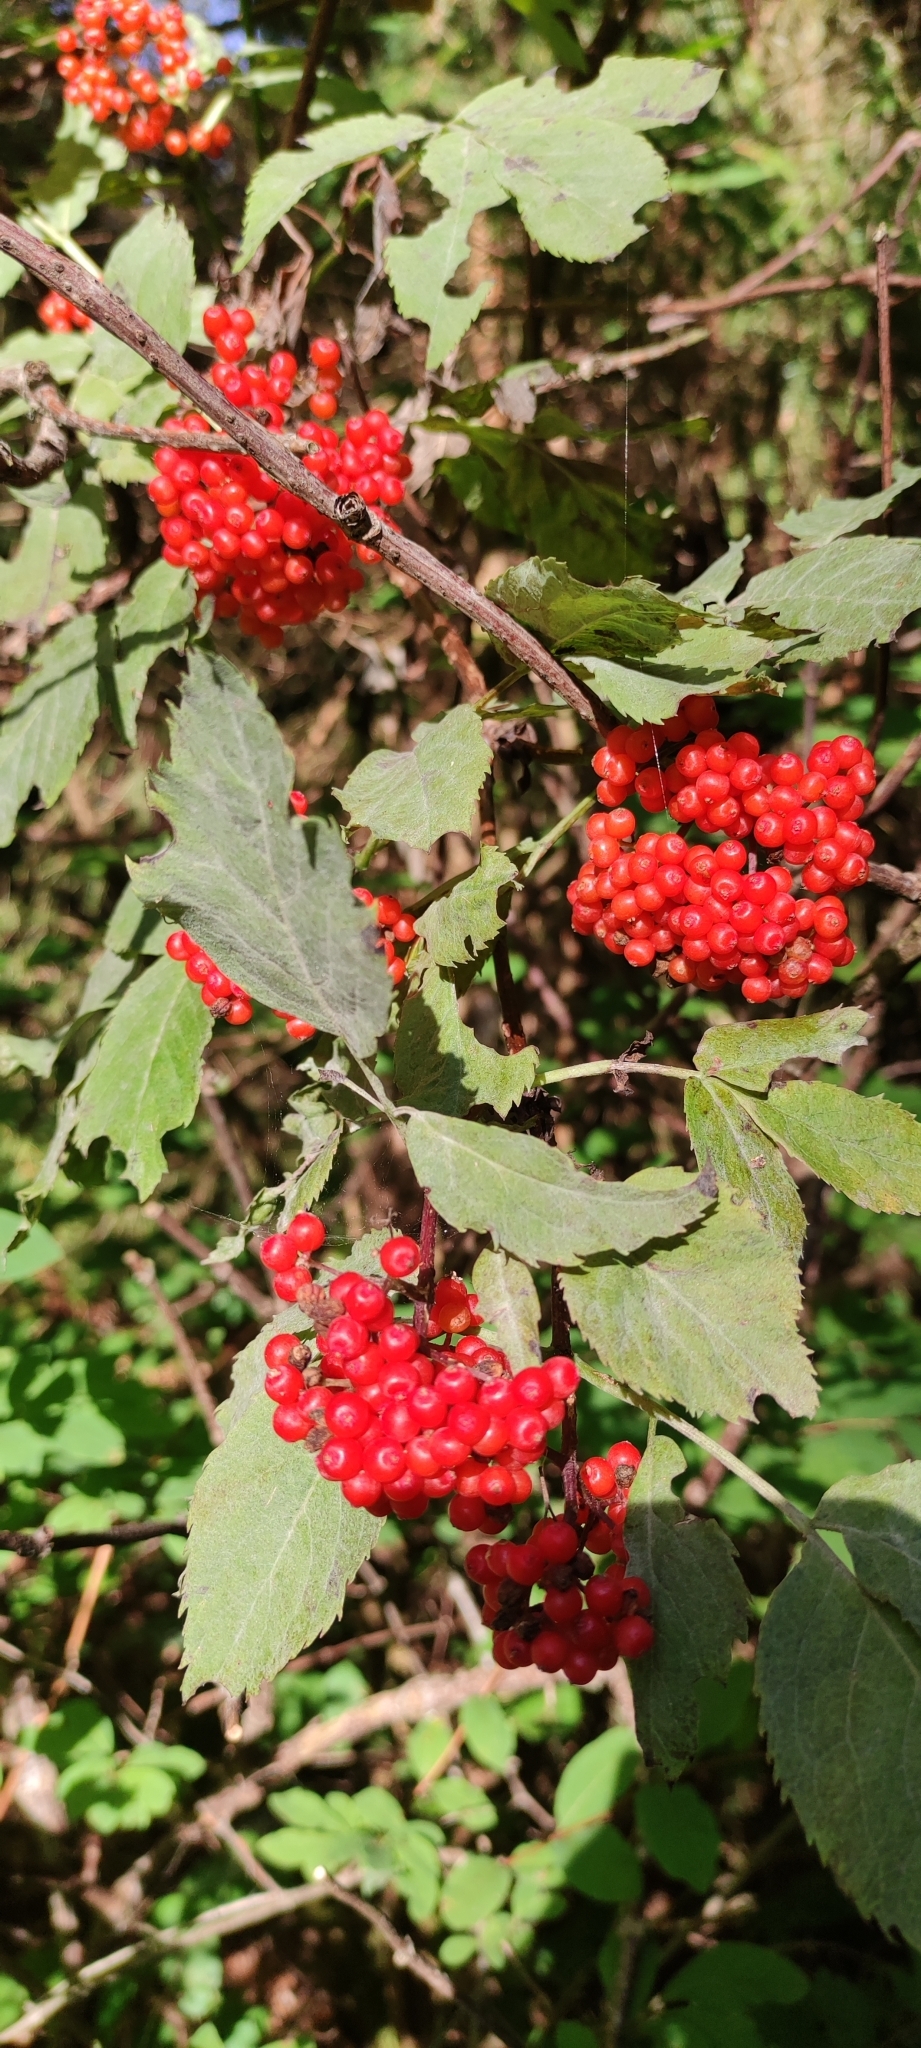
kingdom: Plantae
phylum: Tracheophyta
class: Magnoliopsida
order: Dipsacales
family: Viburnaceae
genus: Sambucus
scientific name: Sambucus racemosa
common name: Red-berried elder
